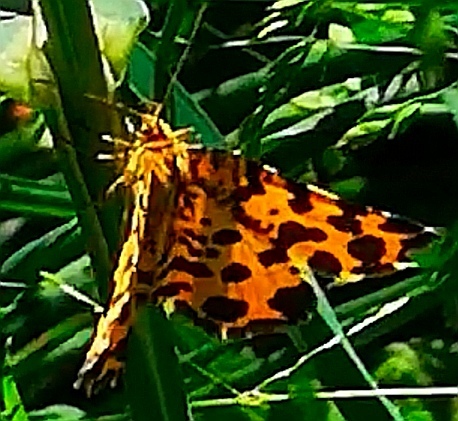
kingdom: Animalia
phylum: Arthropoda
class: Insecta
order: Lepidoptera
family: Geometridae
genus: Pseudopanthera
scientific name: Pseudopanthera macularia
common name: Speckled yellow
